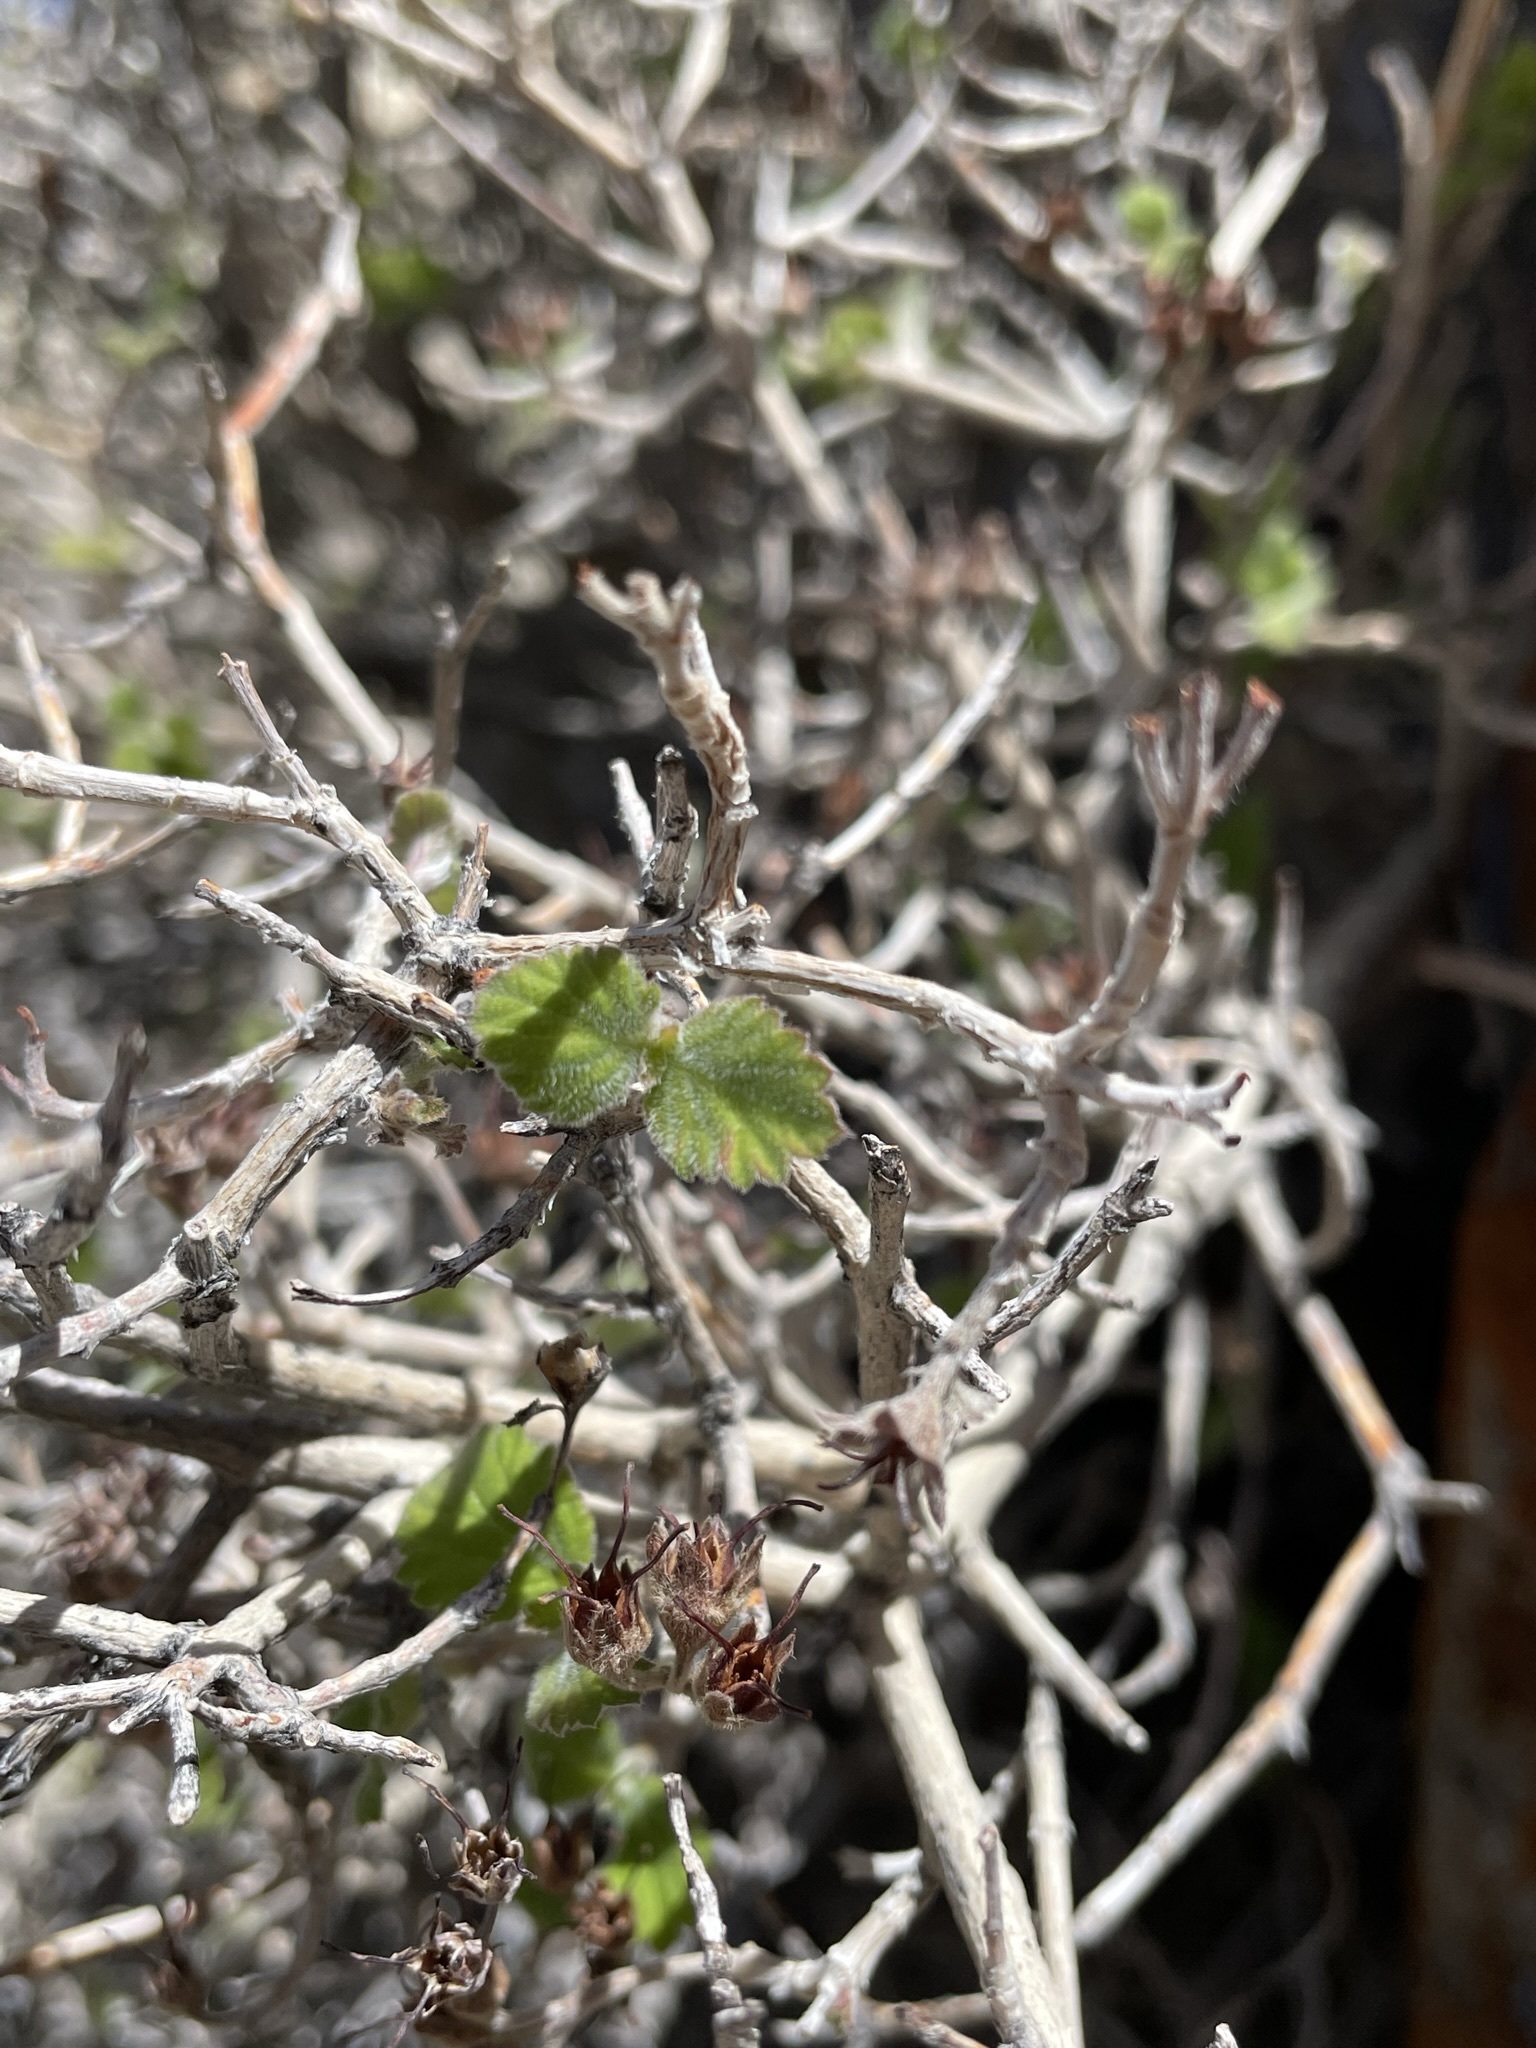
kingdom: Plantae
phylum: Tracheophyta
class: Magnoliopsida
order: Cornales
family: Hydrangeaceae
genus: Jamesia
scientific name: Jamesia americana
